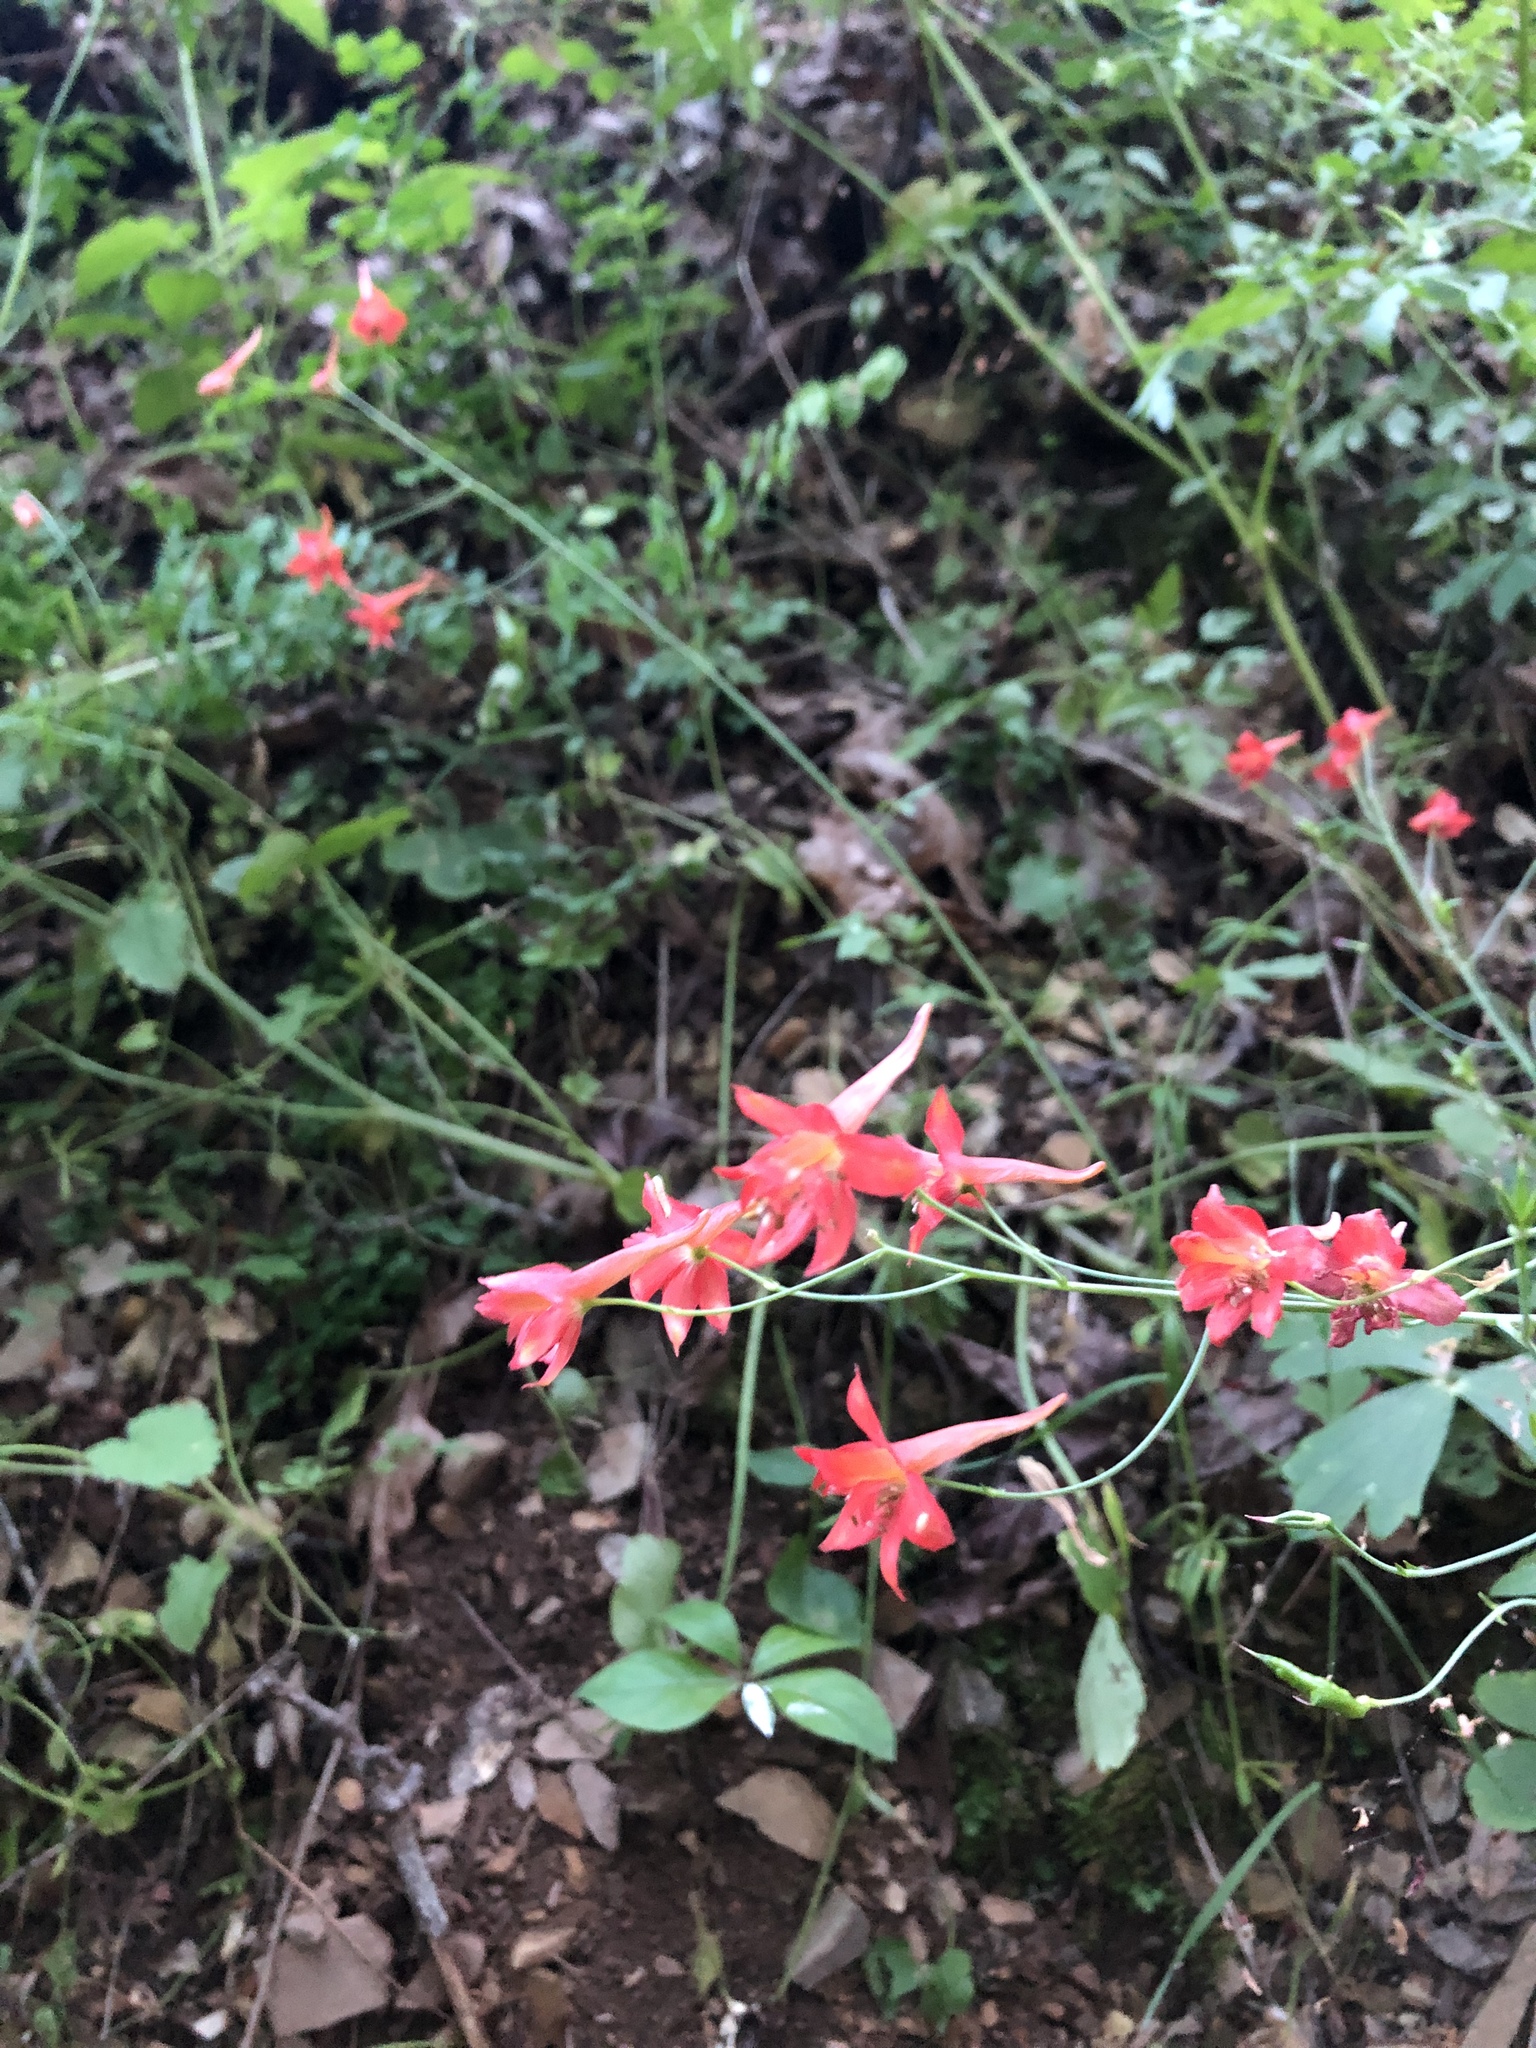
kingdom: Plantae
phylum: Tracheophyta
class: Magnoliopsida
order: Ranunculales
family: Ranunculaceae
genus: Delphinium
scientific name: Delphinium nudicaule
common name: Red larkspur
